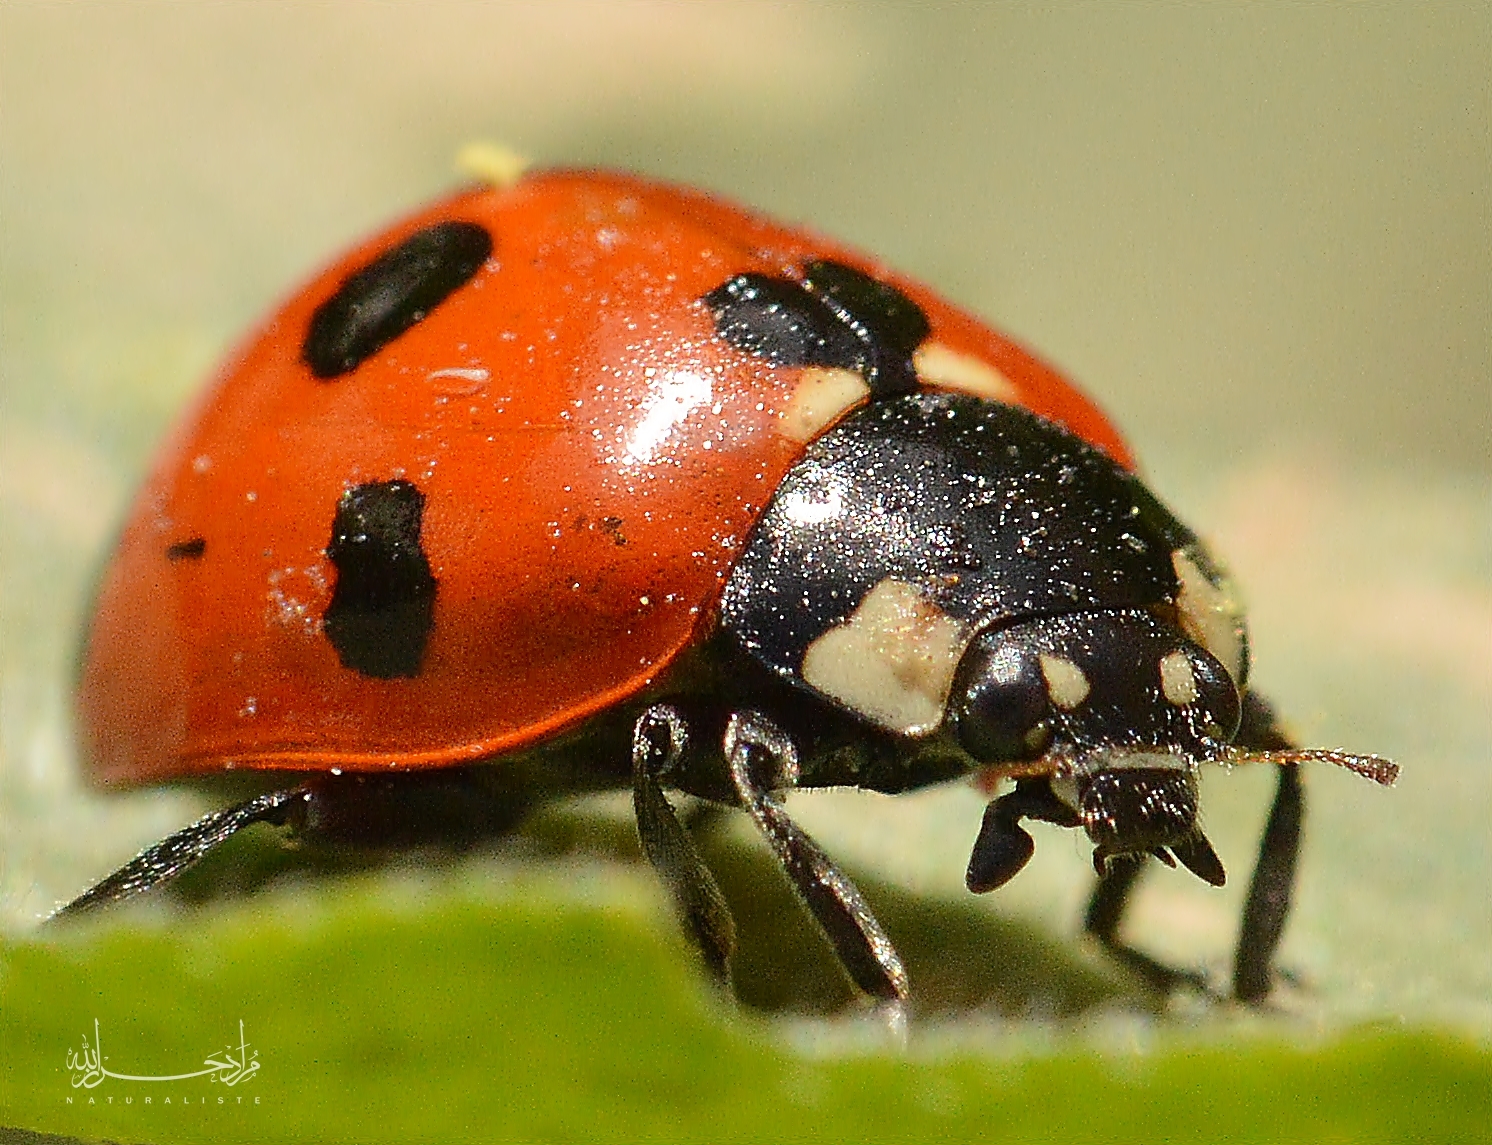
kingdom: Animalia
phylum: Arthropoda
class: Insecta
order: Coleoptera
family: Coccinellidae
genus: Coccinella
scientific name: Coccinella algerica
